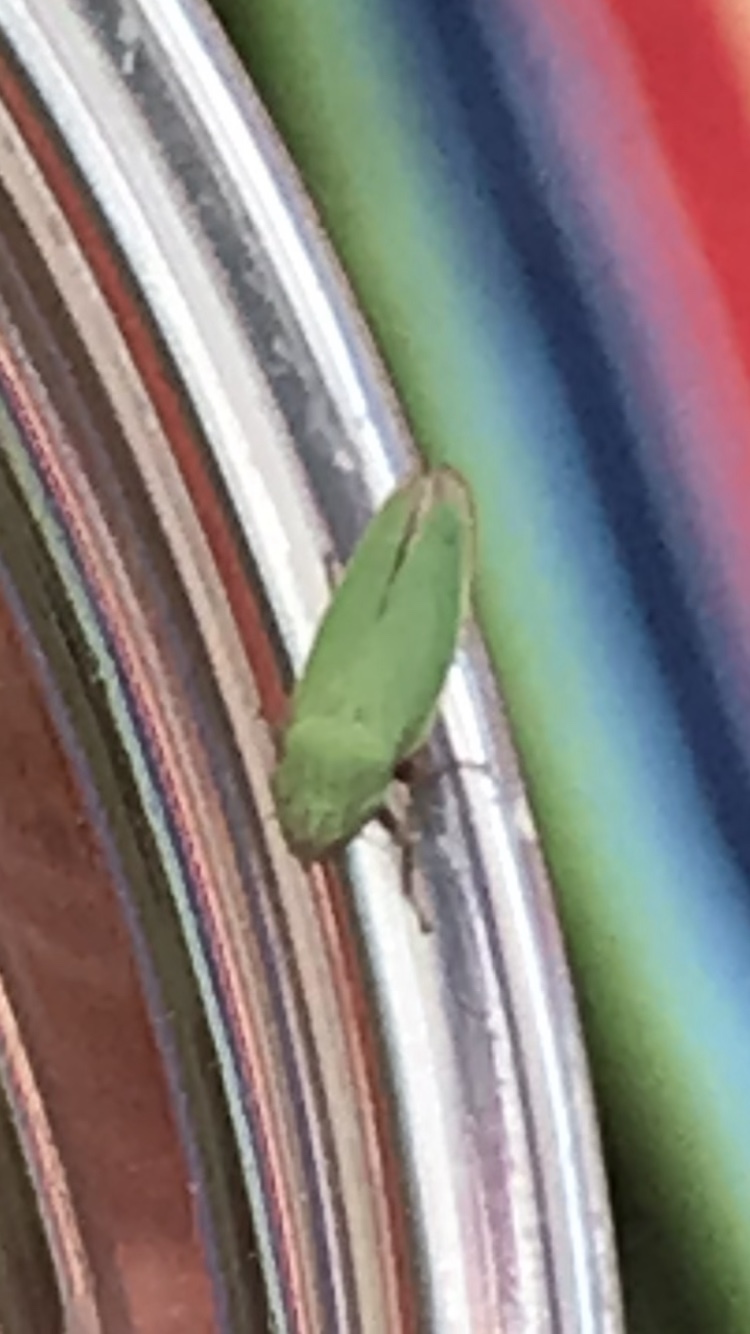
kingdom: Animalia
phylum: Arthropoda
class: Insecta
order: Hemiptera
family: Cicadellidae
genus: Helochara
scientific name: Helochara communis
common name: Bog leafhopper
